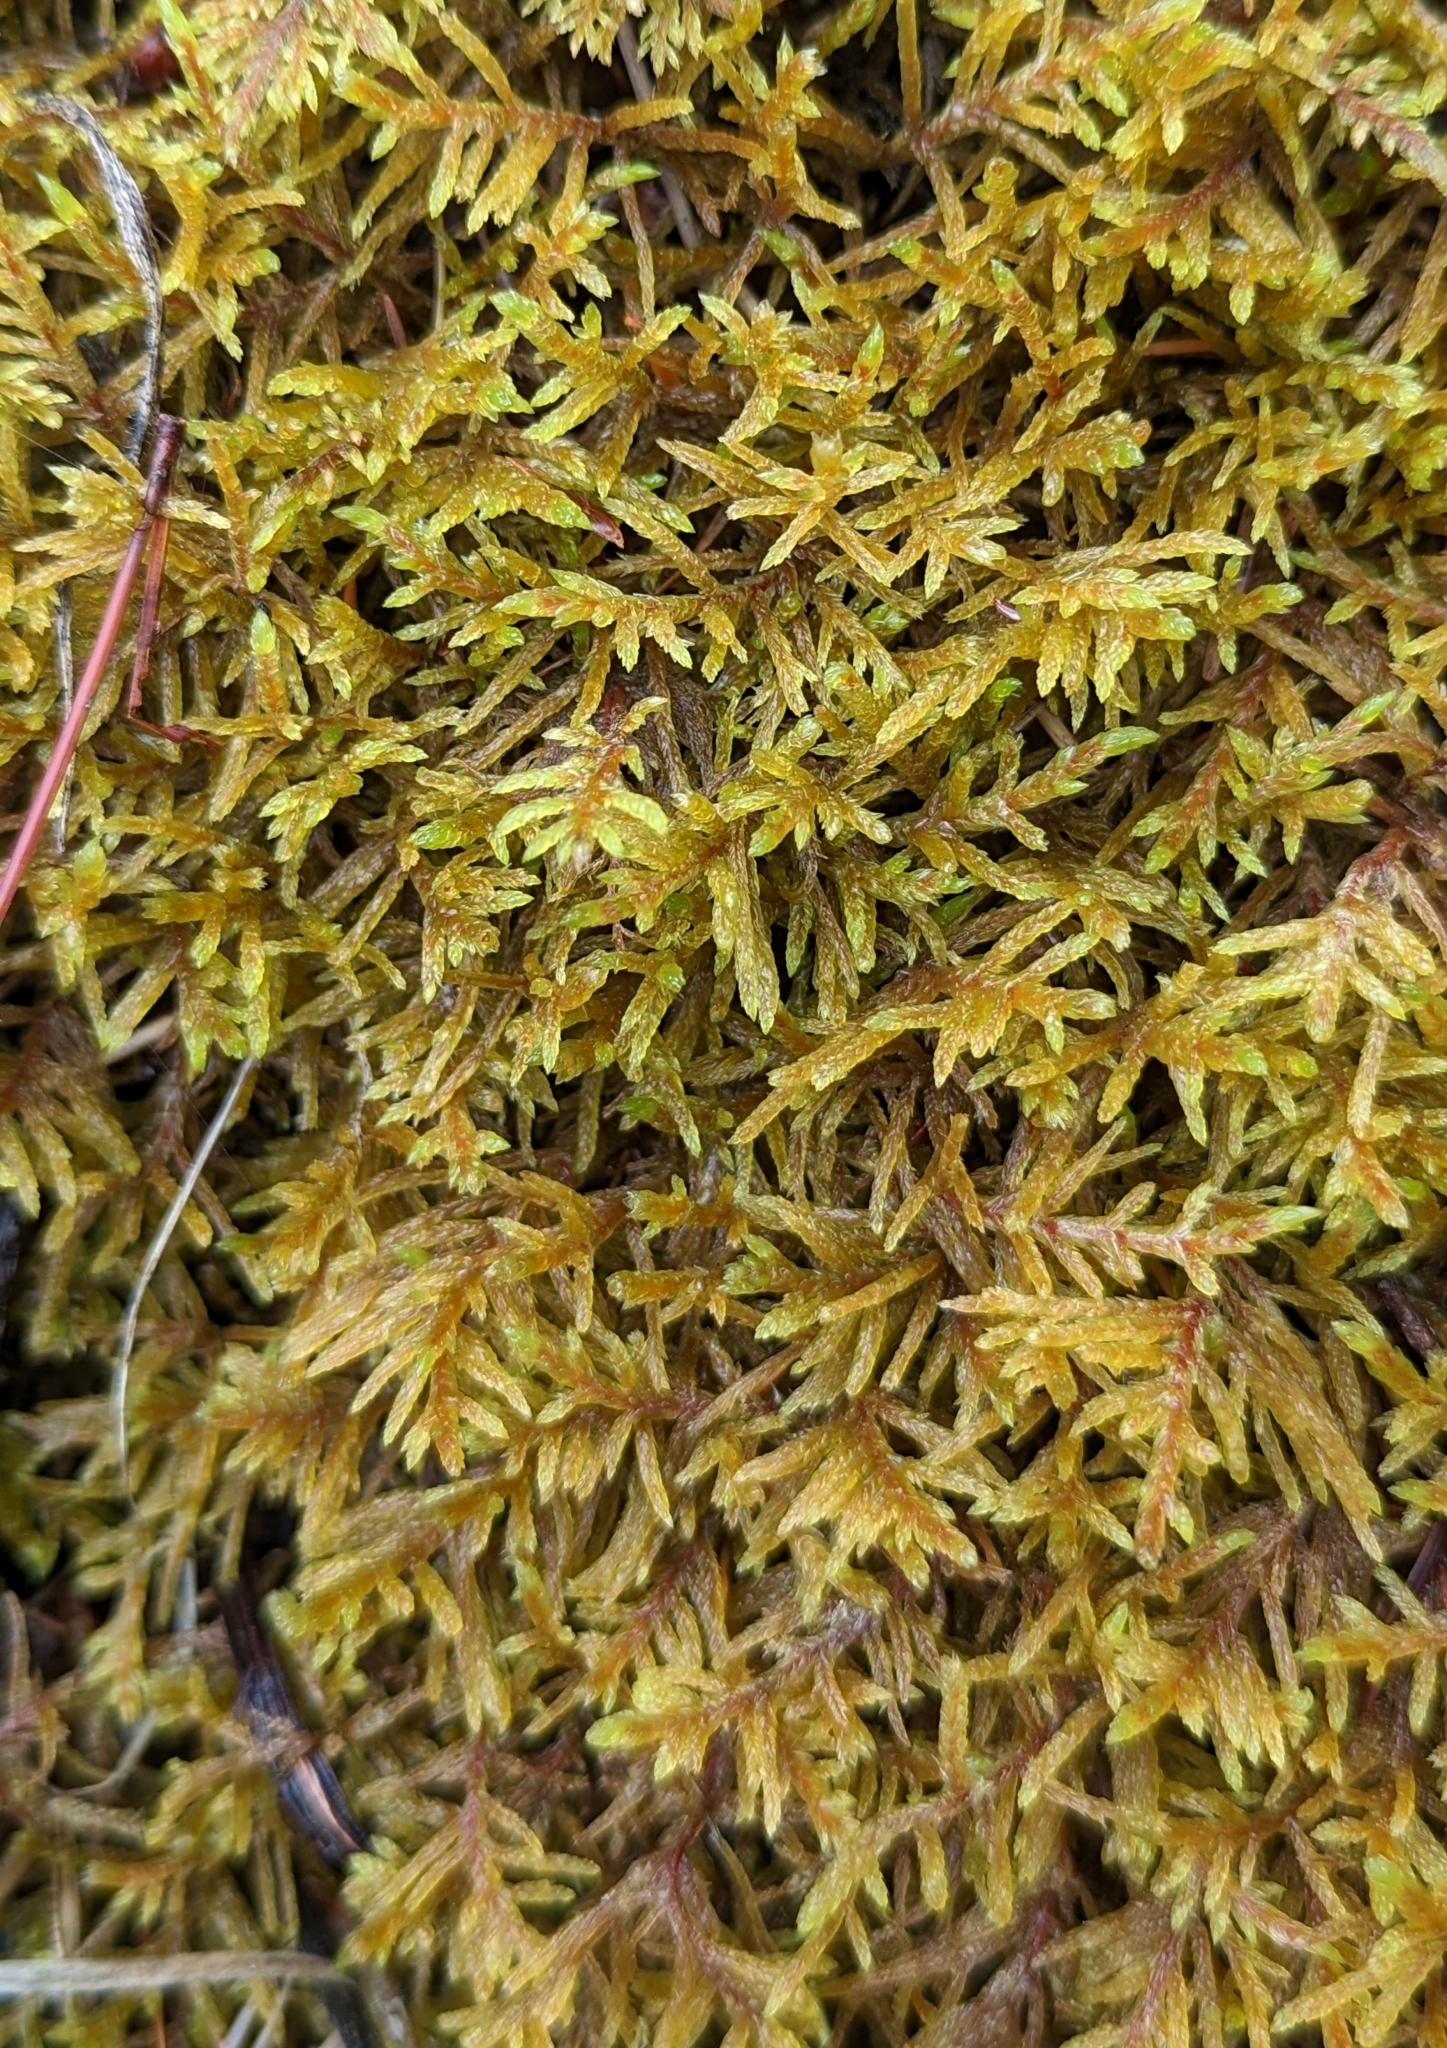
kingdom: Plantae
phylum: Bryophyta
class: Bryopsida
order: Hypnales
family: Hylocomiaceae
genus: Pleurozium
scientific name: Pleurozium schreberi
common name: Red-stemmed feather moss
